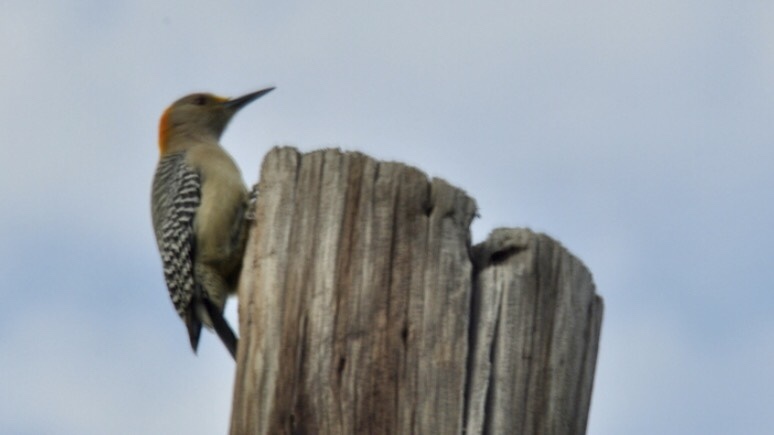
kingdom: Animalia
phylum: Chordata
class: Aves
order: Piciformes
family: Picidae
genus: Melanerpes
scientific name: Melanerpes aurifrons
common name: Golden-fronted woodpecker
